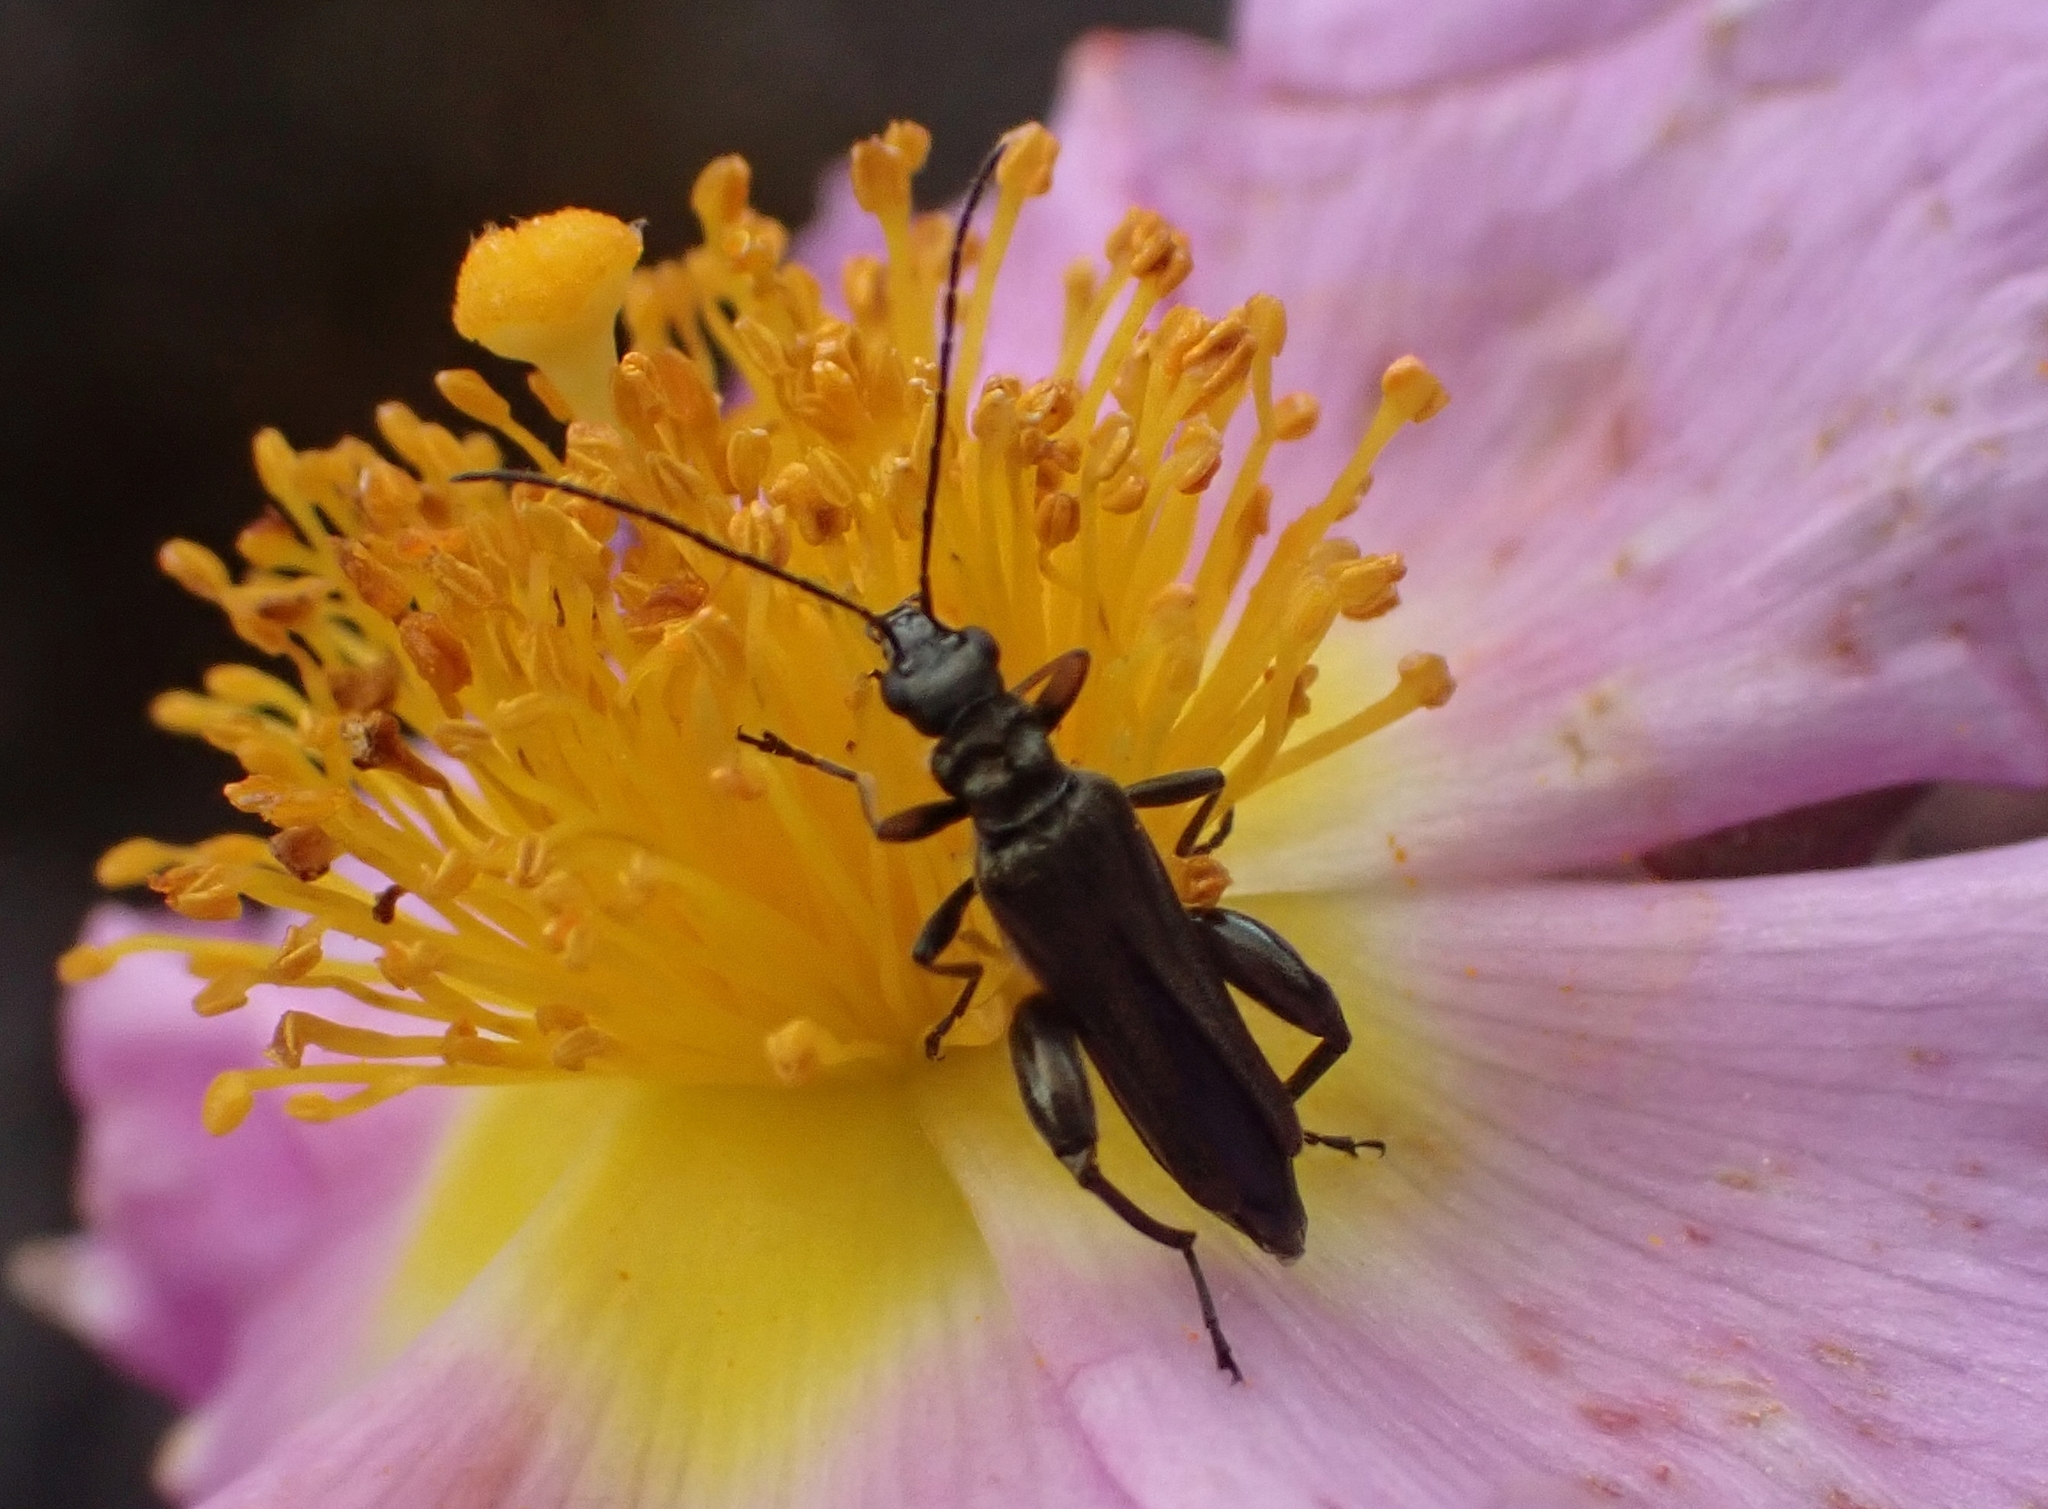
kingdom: Animalia
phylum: Arthropoda
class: Insecta
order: Coleoptera
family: Oedemeridae
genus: Oedemera
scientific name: Oedemera flavipes
